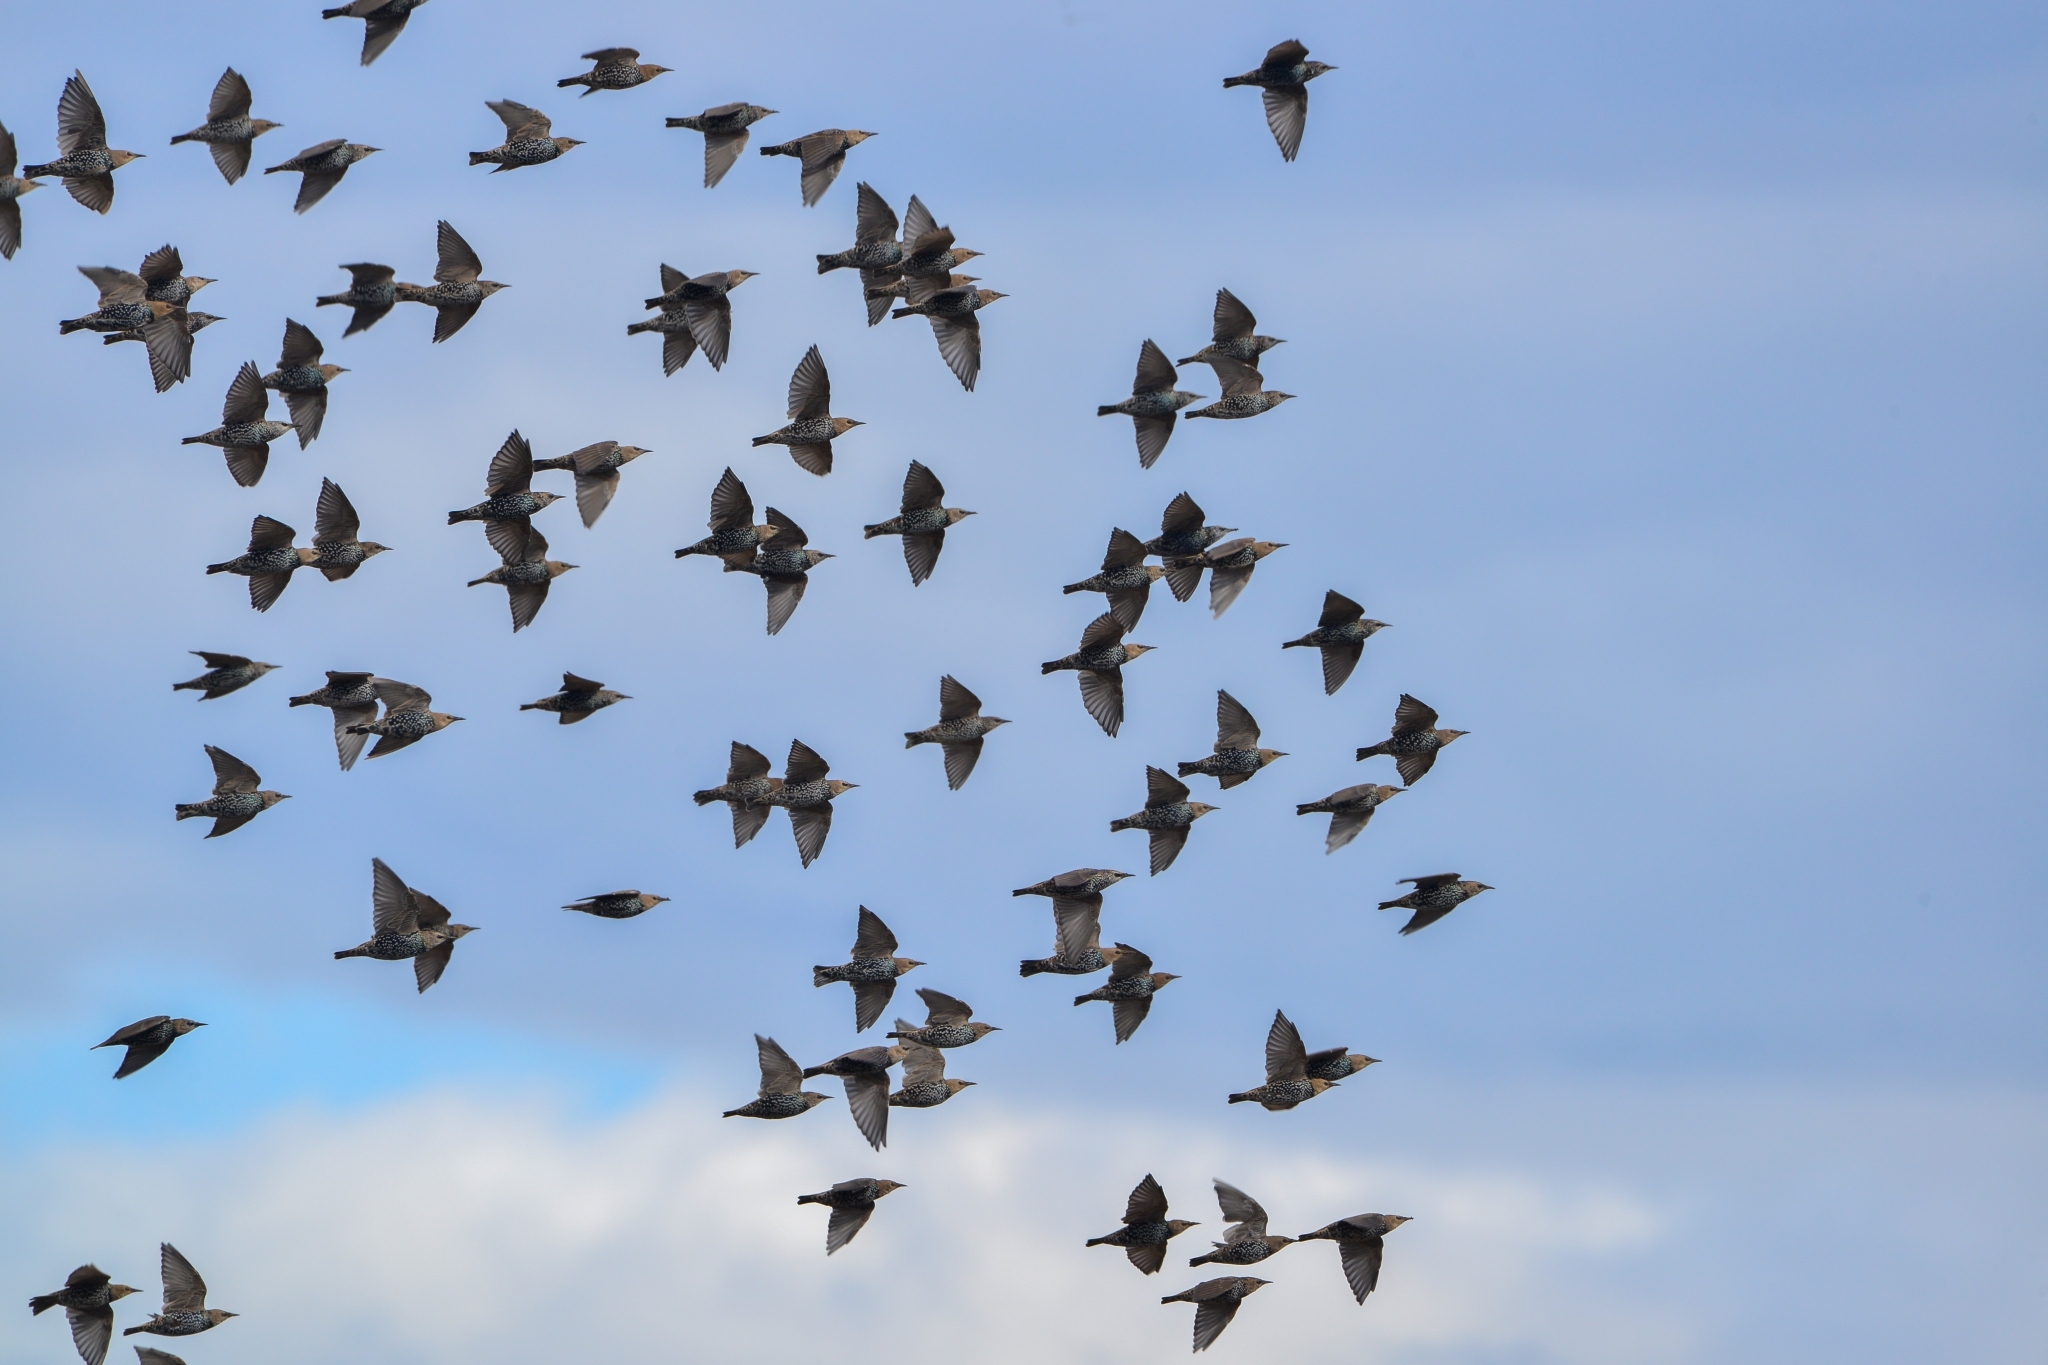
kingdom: Animalia
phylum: Chordata
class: Aves
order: Passeriformes
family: Sturnidae
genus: Sturnus
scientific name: Sturnus vulgaris
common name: Common starling
